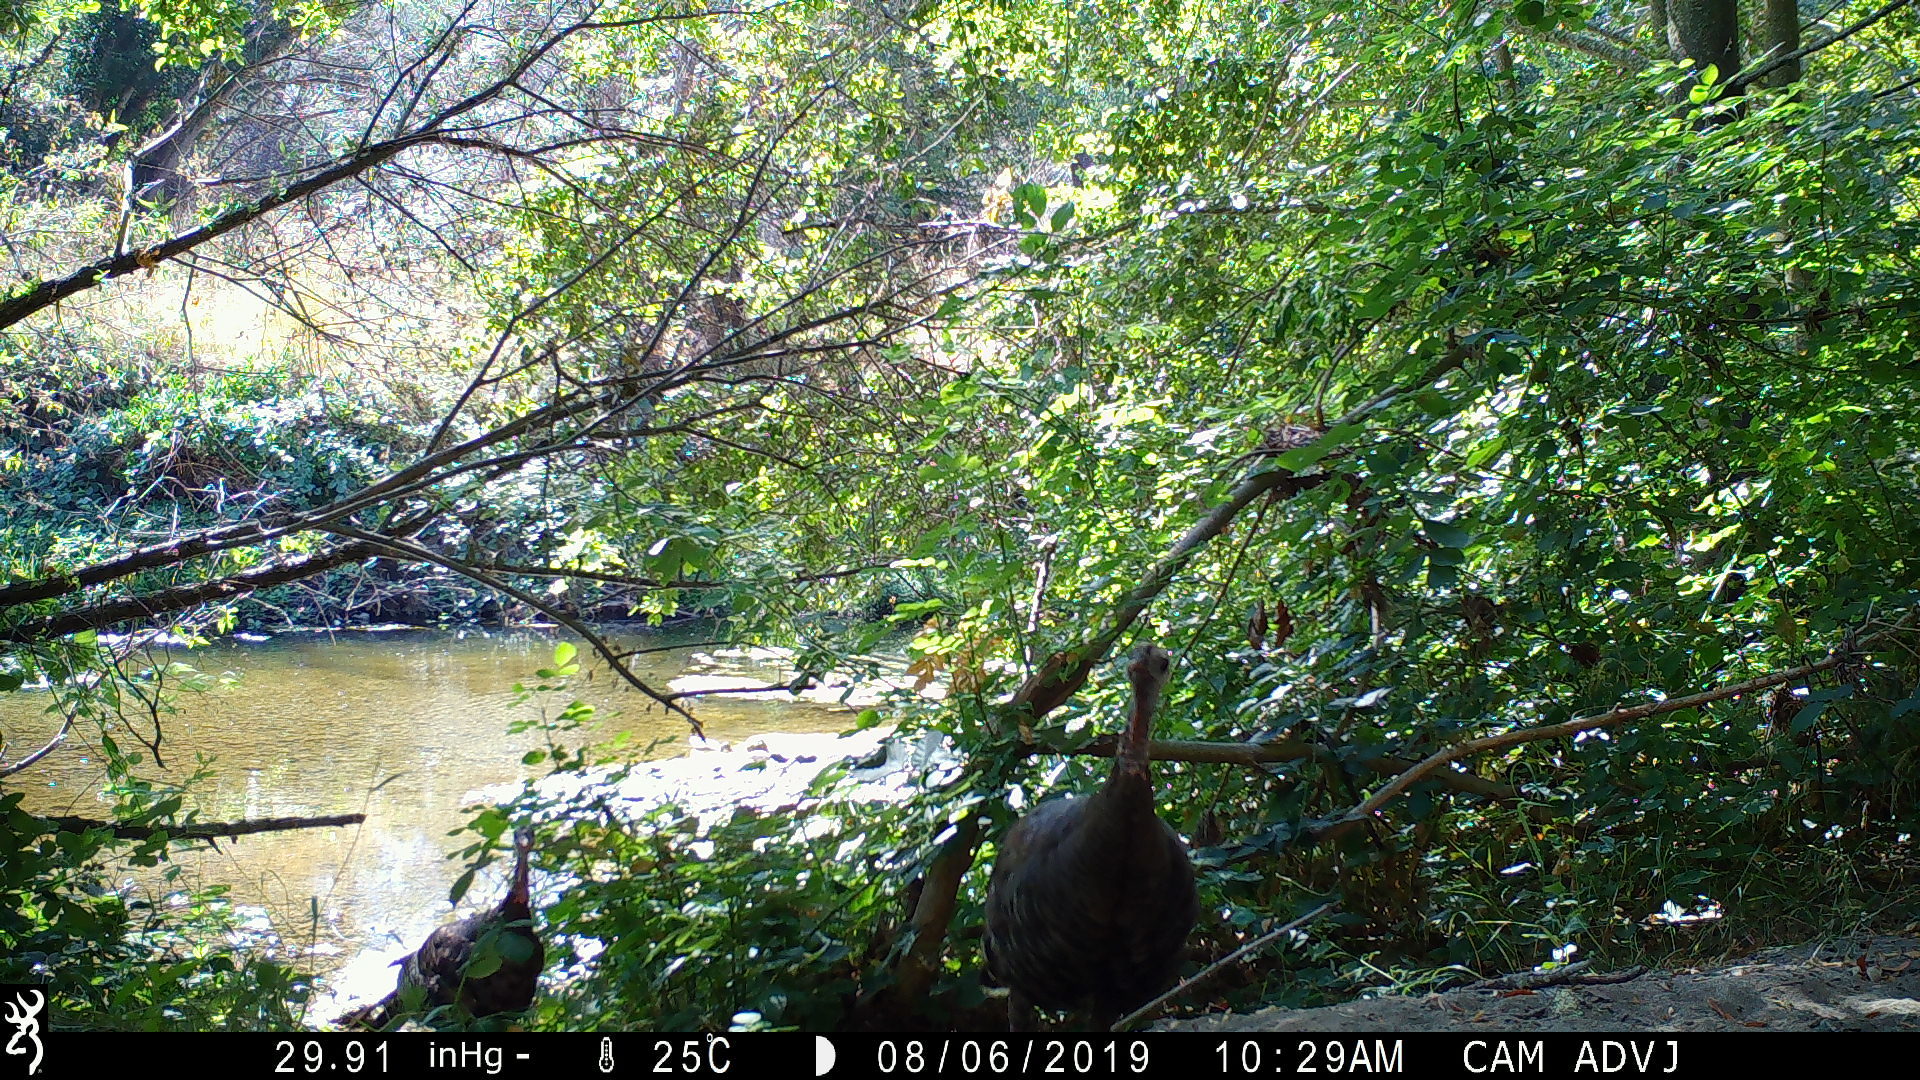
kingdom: Animalia
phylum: Chordata
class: Aves
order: Galliformes
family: Phasianidae
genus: Meleagris
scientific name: Meleagris gallopavo
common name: Wild turkey
